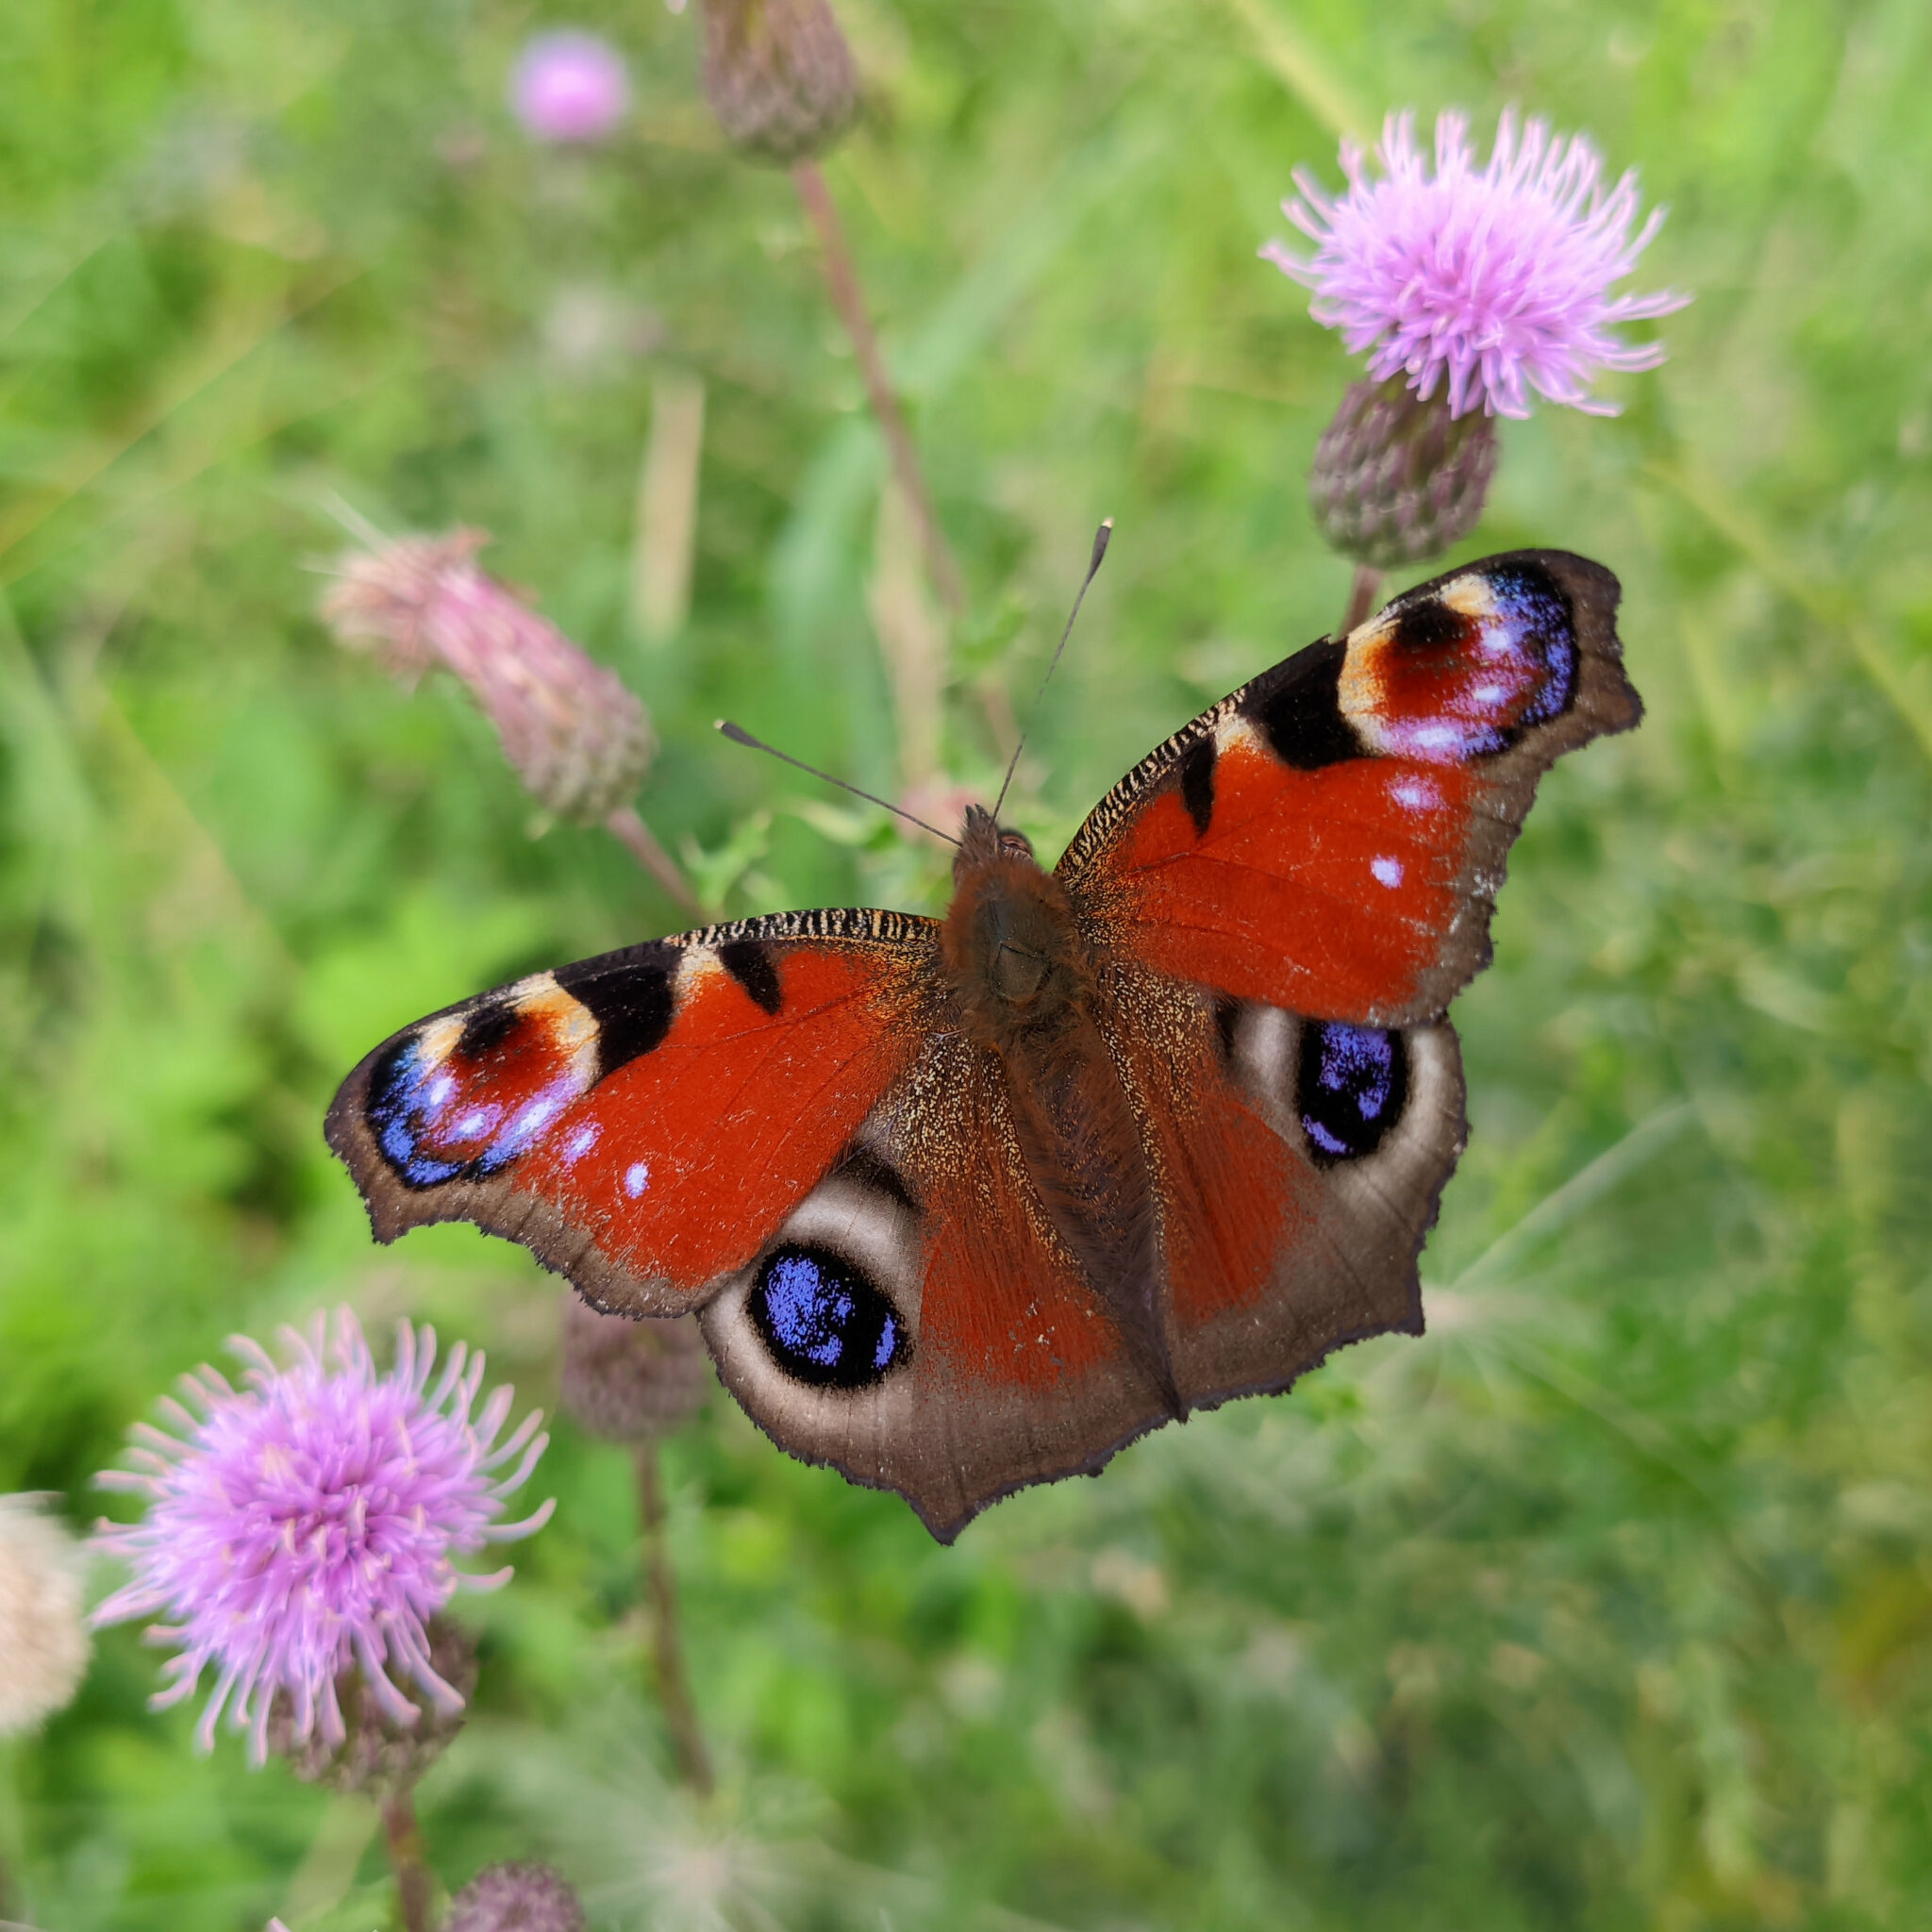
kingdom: Animalia
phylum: Arthropoda
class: Insecta
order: Lepidoptera
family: Nymphalidae
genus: Aglais
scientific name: Aglais io
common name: Peacock
